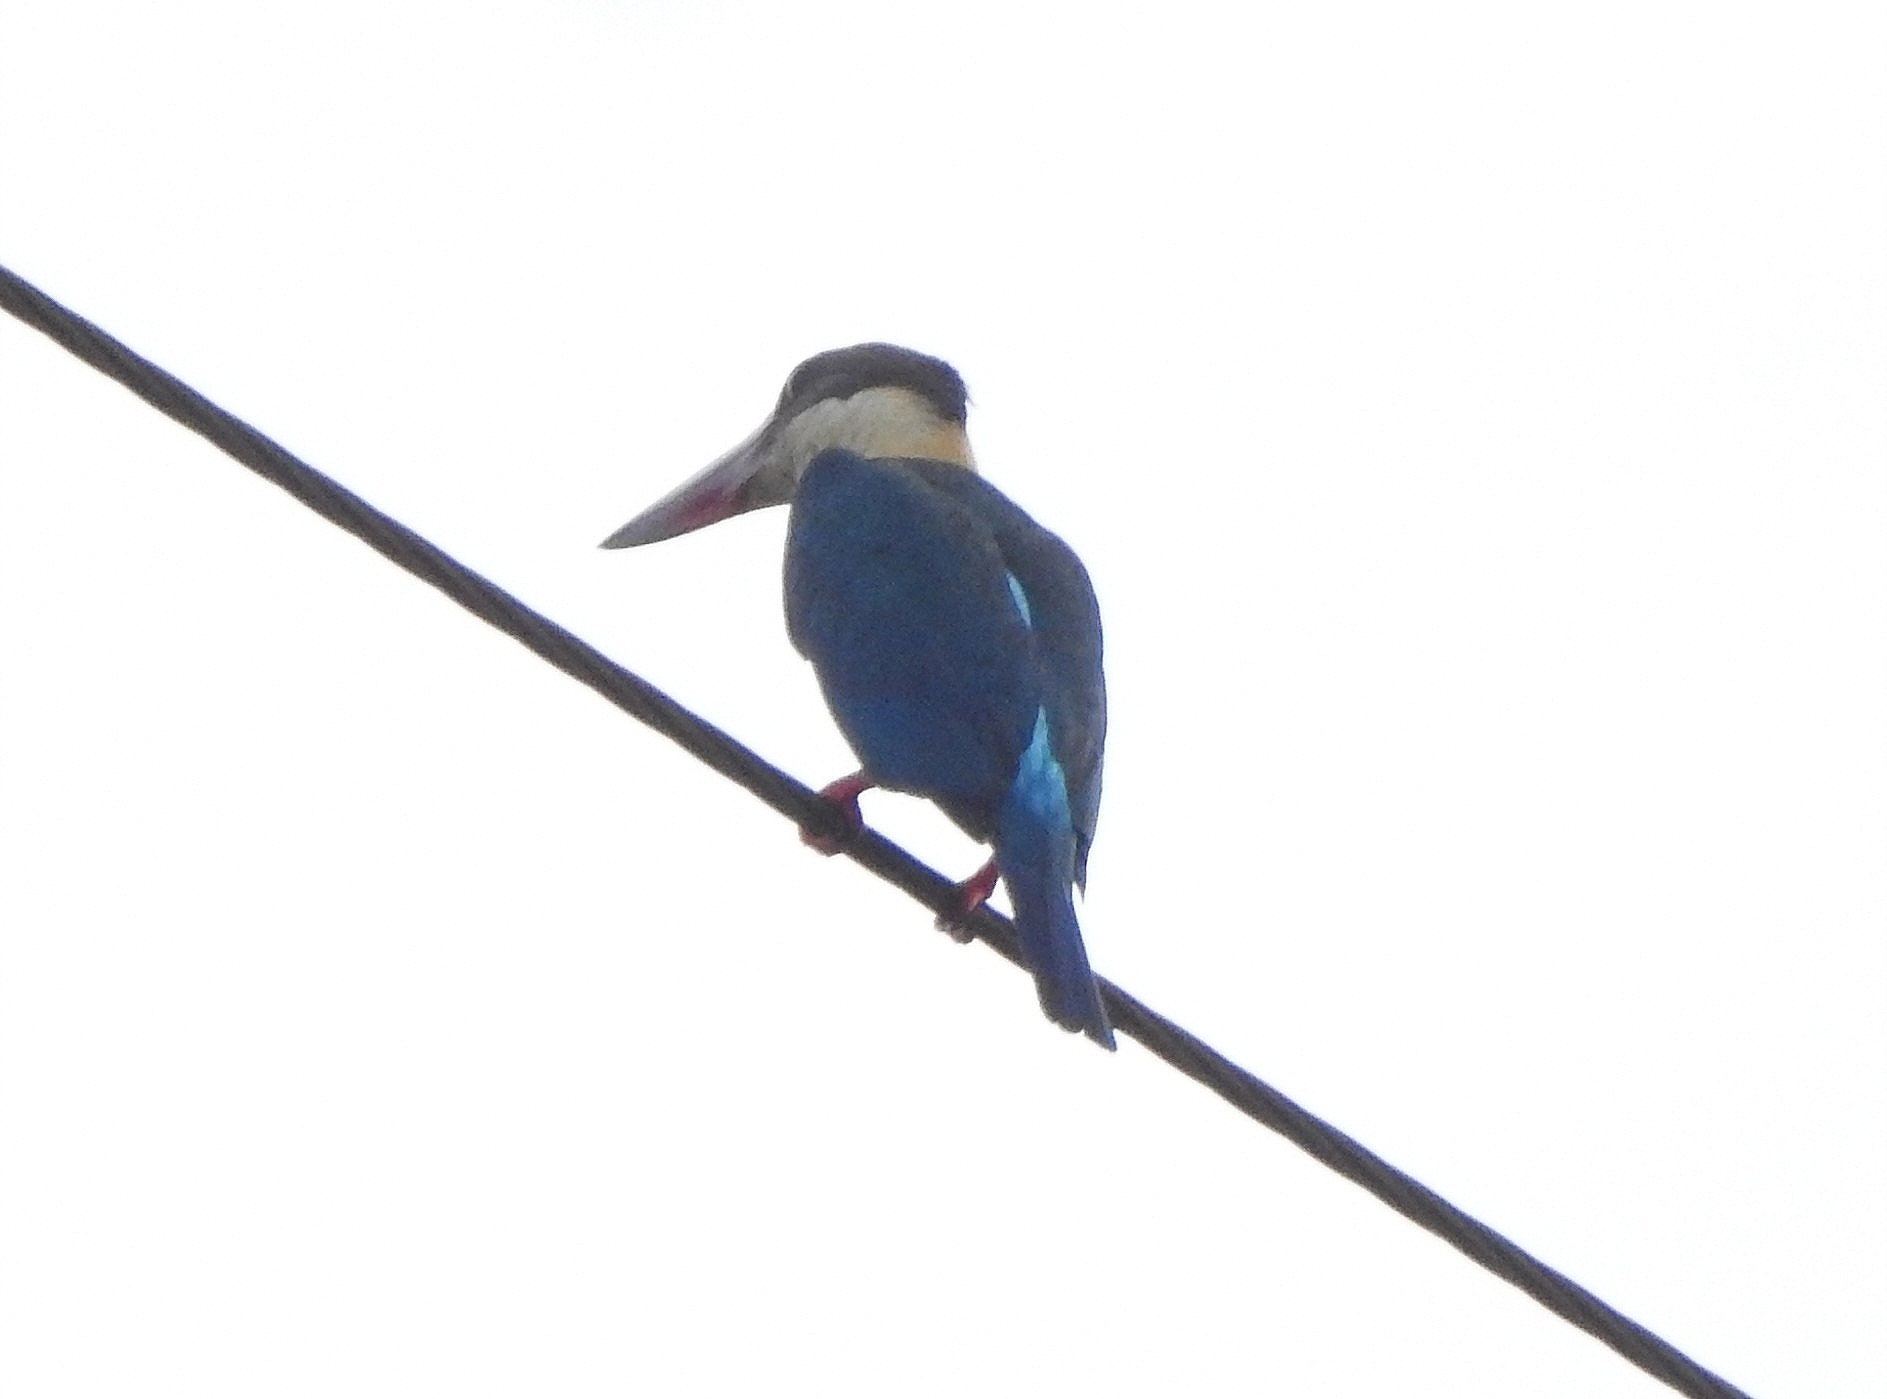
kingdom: Animalia
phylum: Chordata
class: Aves
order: Coraciiformes
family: Alcedinidae
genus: Pelargopsis
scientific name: Pelargopsis capensis
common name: Stork-billed kingfisher
